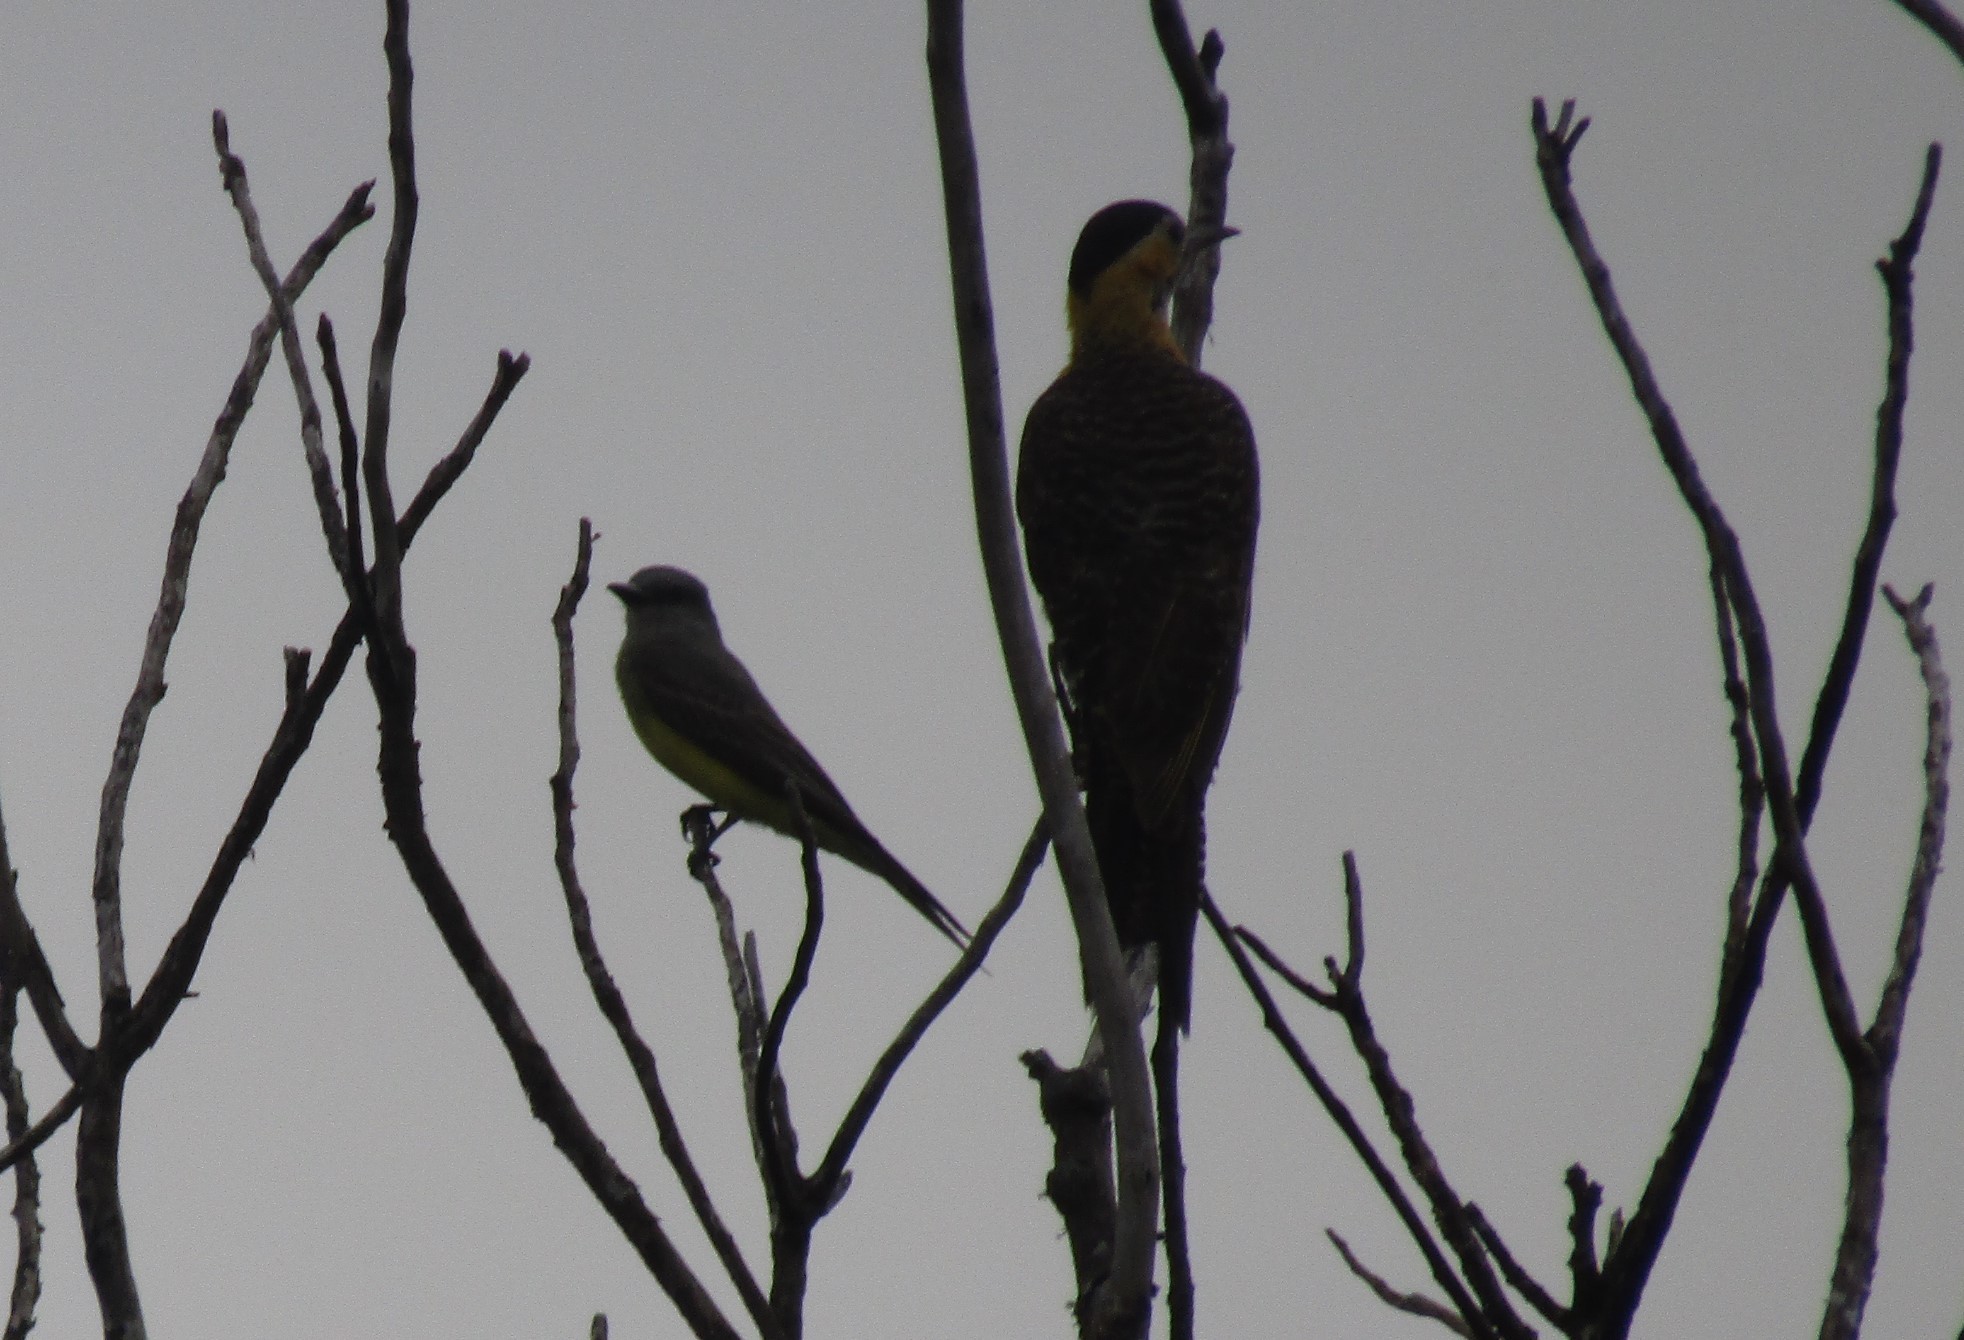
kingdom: Animalia
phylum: Chordata
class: Aves
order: Piciformes
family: Picidae
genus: Colaptes
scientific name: Colaptes campestris
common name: Campo flicker
